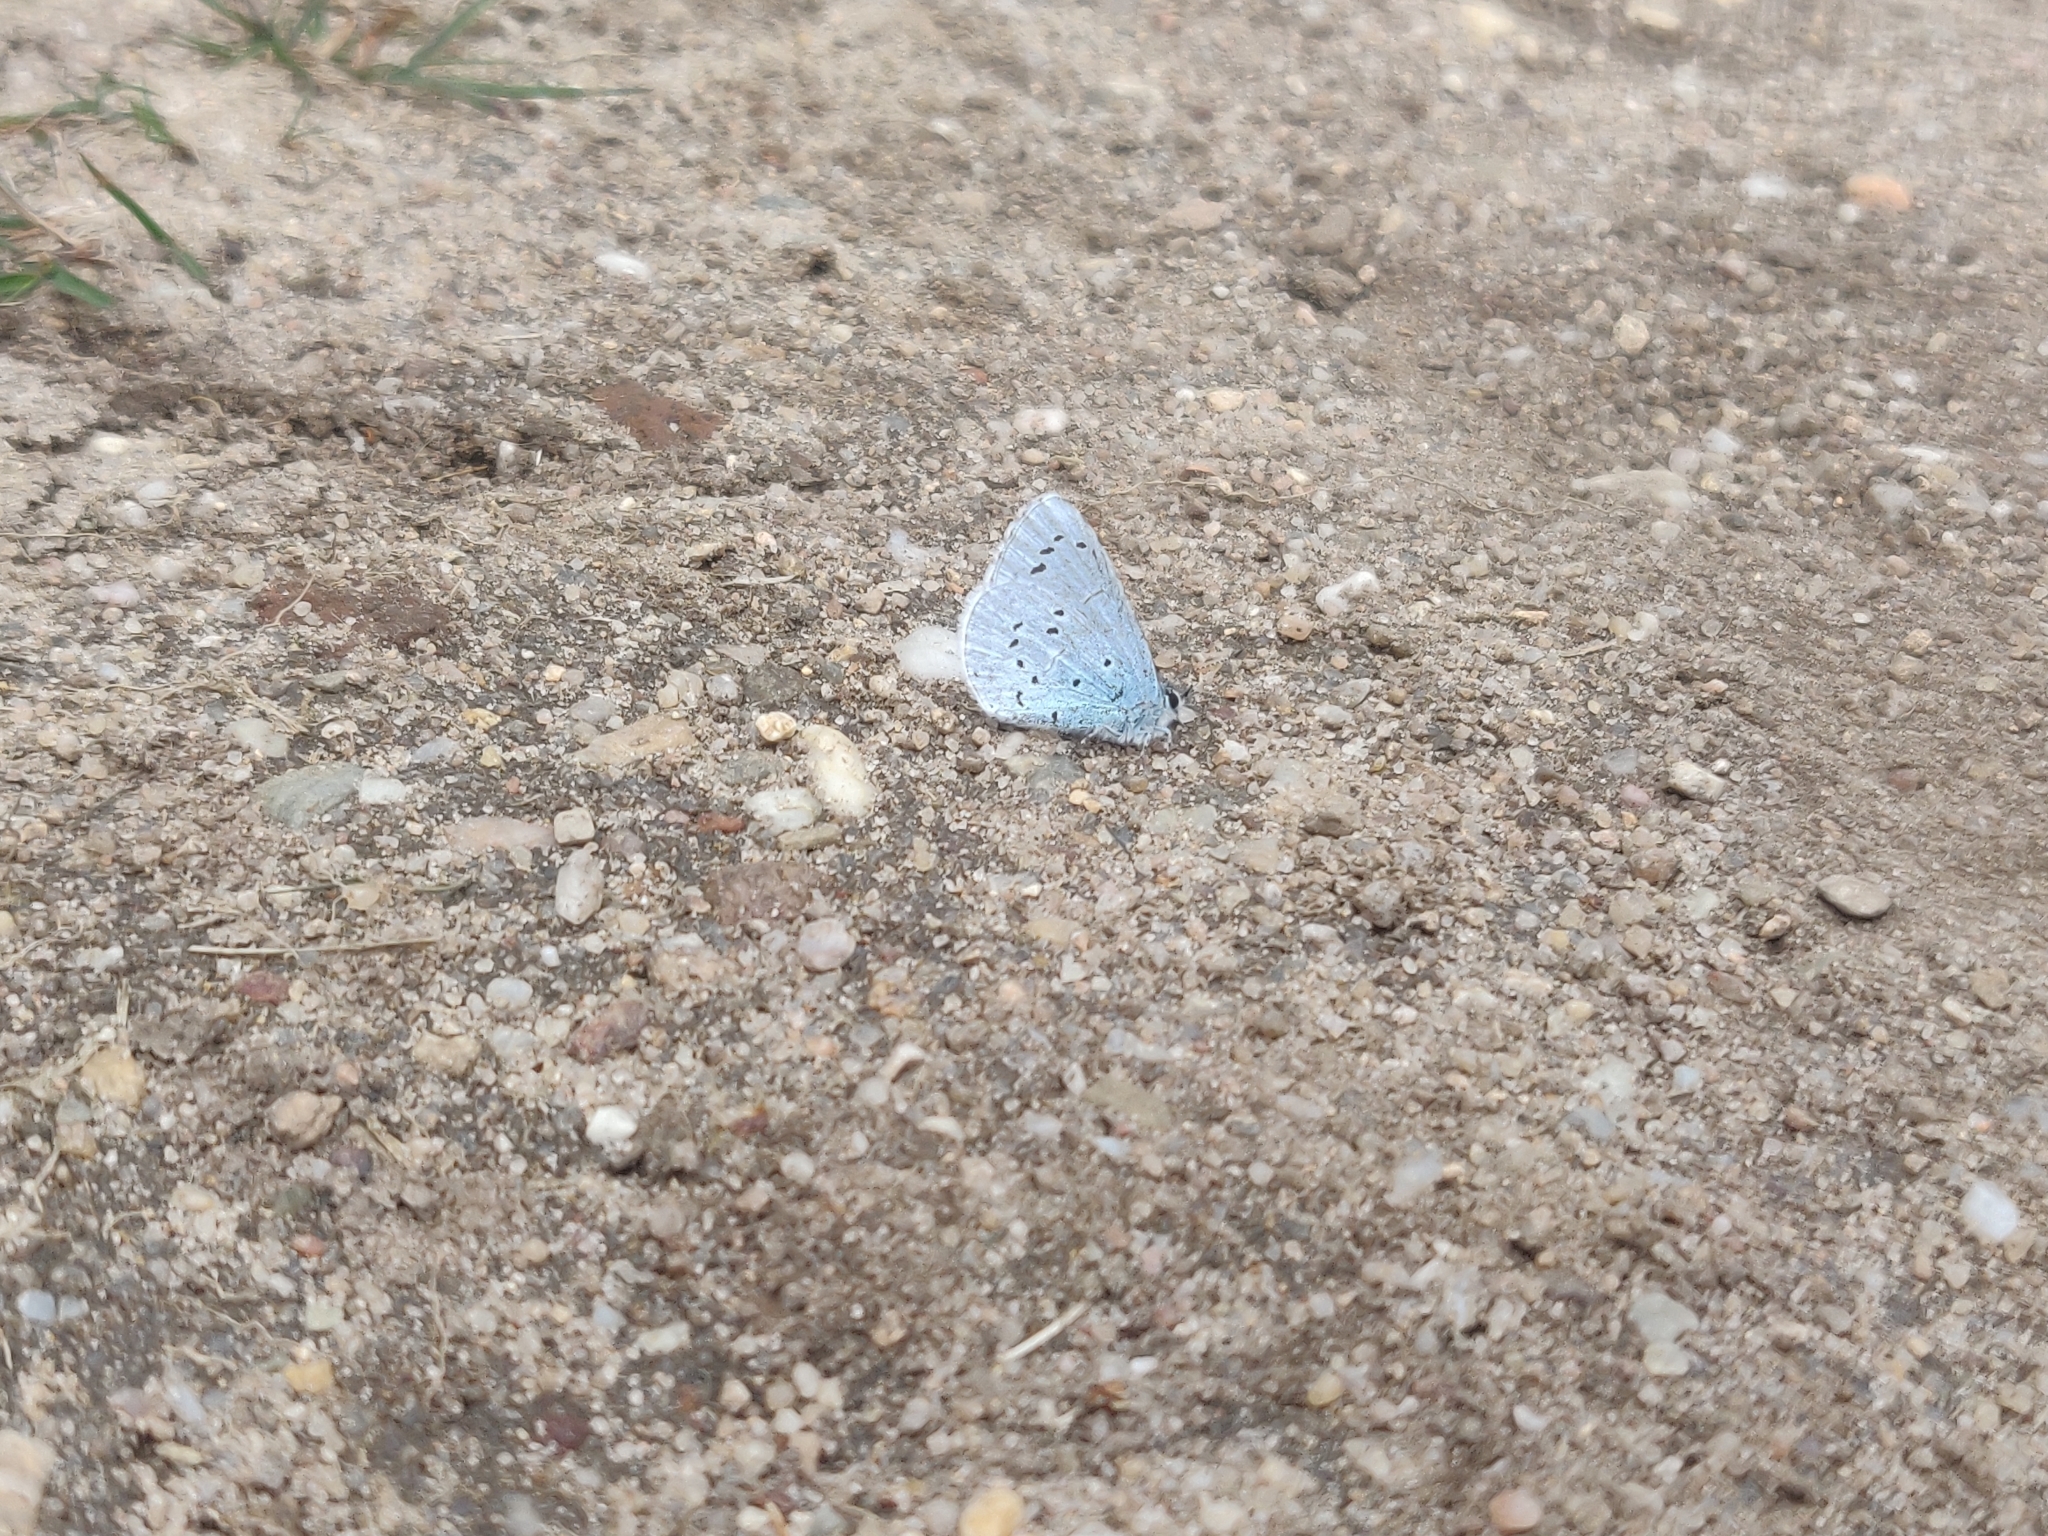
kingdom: Animalia
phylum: Arthropoda
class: Insecta
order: Lepidoptera
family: Lycaenidae
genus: Celastrina
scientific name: Celastrina argiolus
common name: Holly blue
